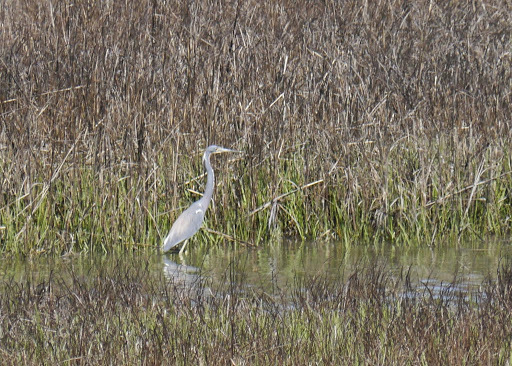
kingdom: Animalia
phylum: Chordata
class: Aves
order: Pelecaniformes
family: Ardeidae
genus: Egretta
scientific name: Egretta tricolor
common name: Tricolored heron
